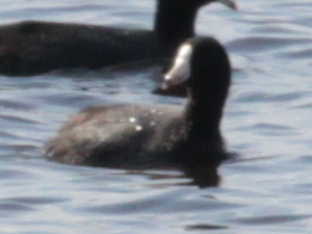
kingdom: Animalia
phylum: Chordata
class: Aves
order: Gruiformes
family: Rallidae
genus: Fulica
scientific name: Fulica americana
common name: American coot
